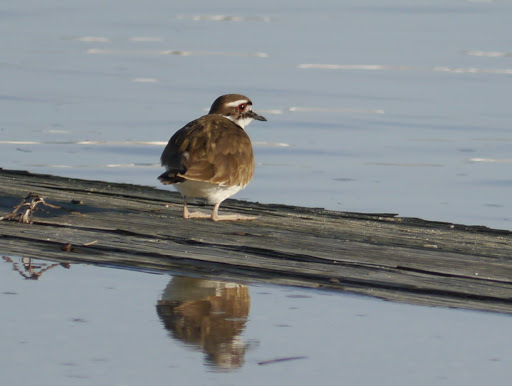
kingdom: Animalia
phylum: Chordata
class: Aves
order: Charadriiformes
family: Charadriidae
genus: Charadrius
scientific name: Charadrius vociferus
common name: Killdeer
